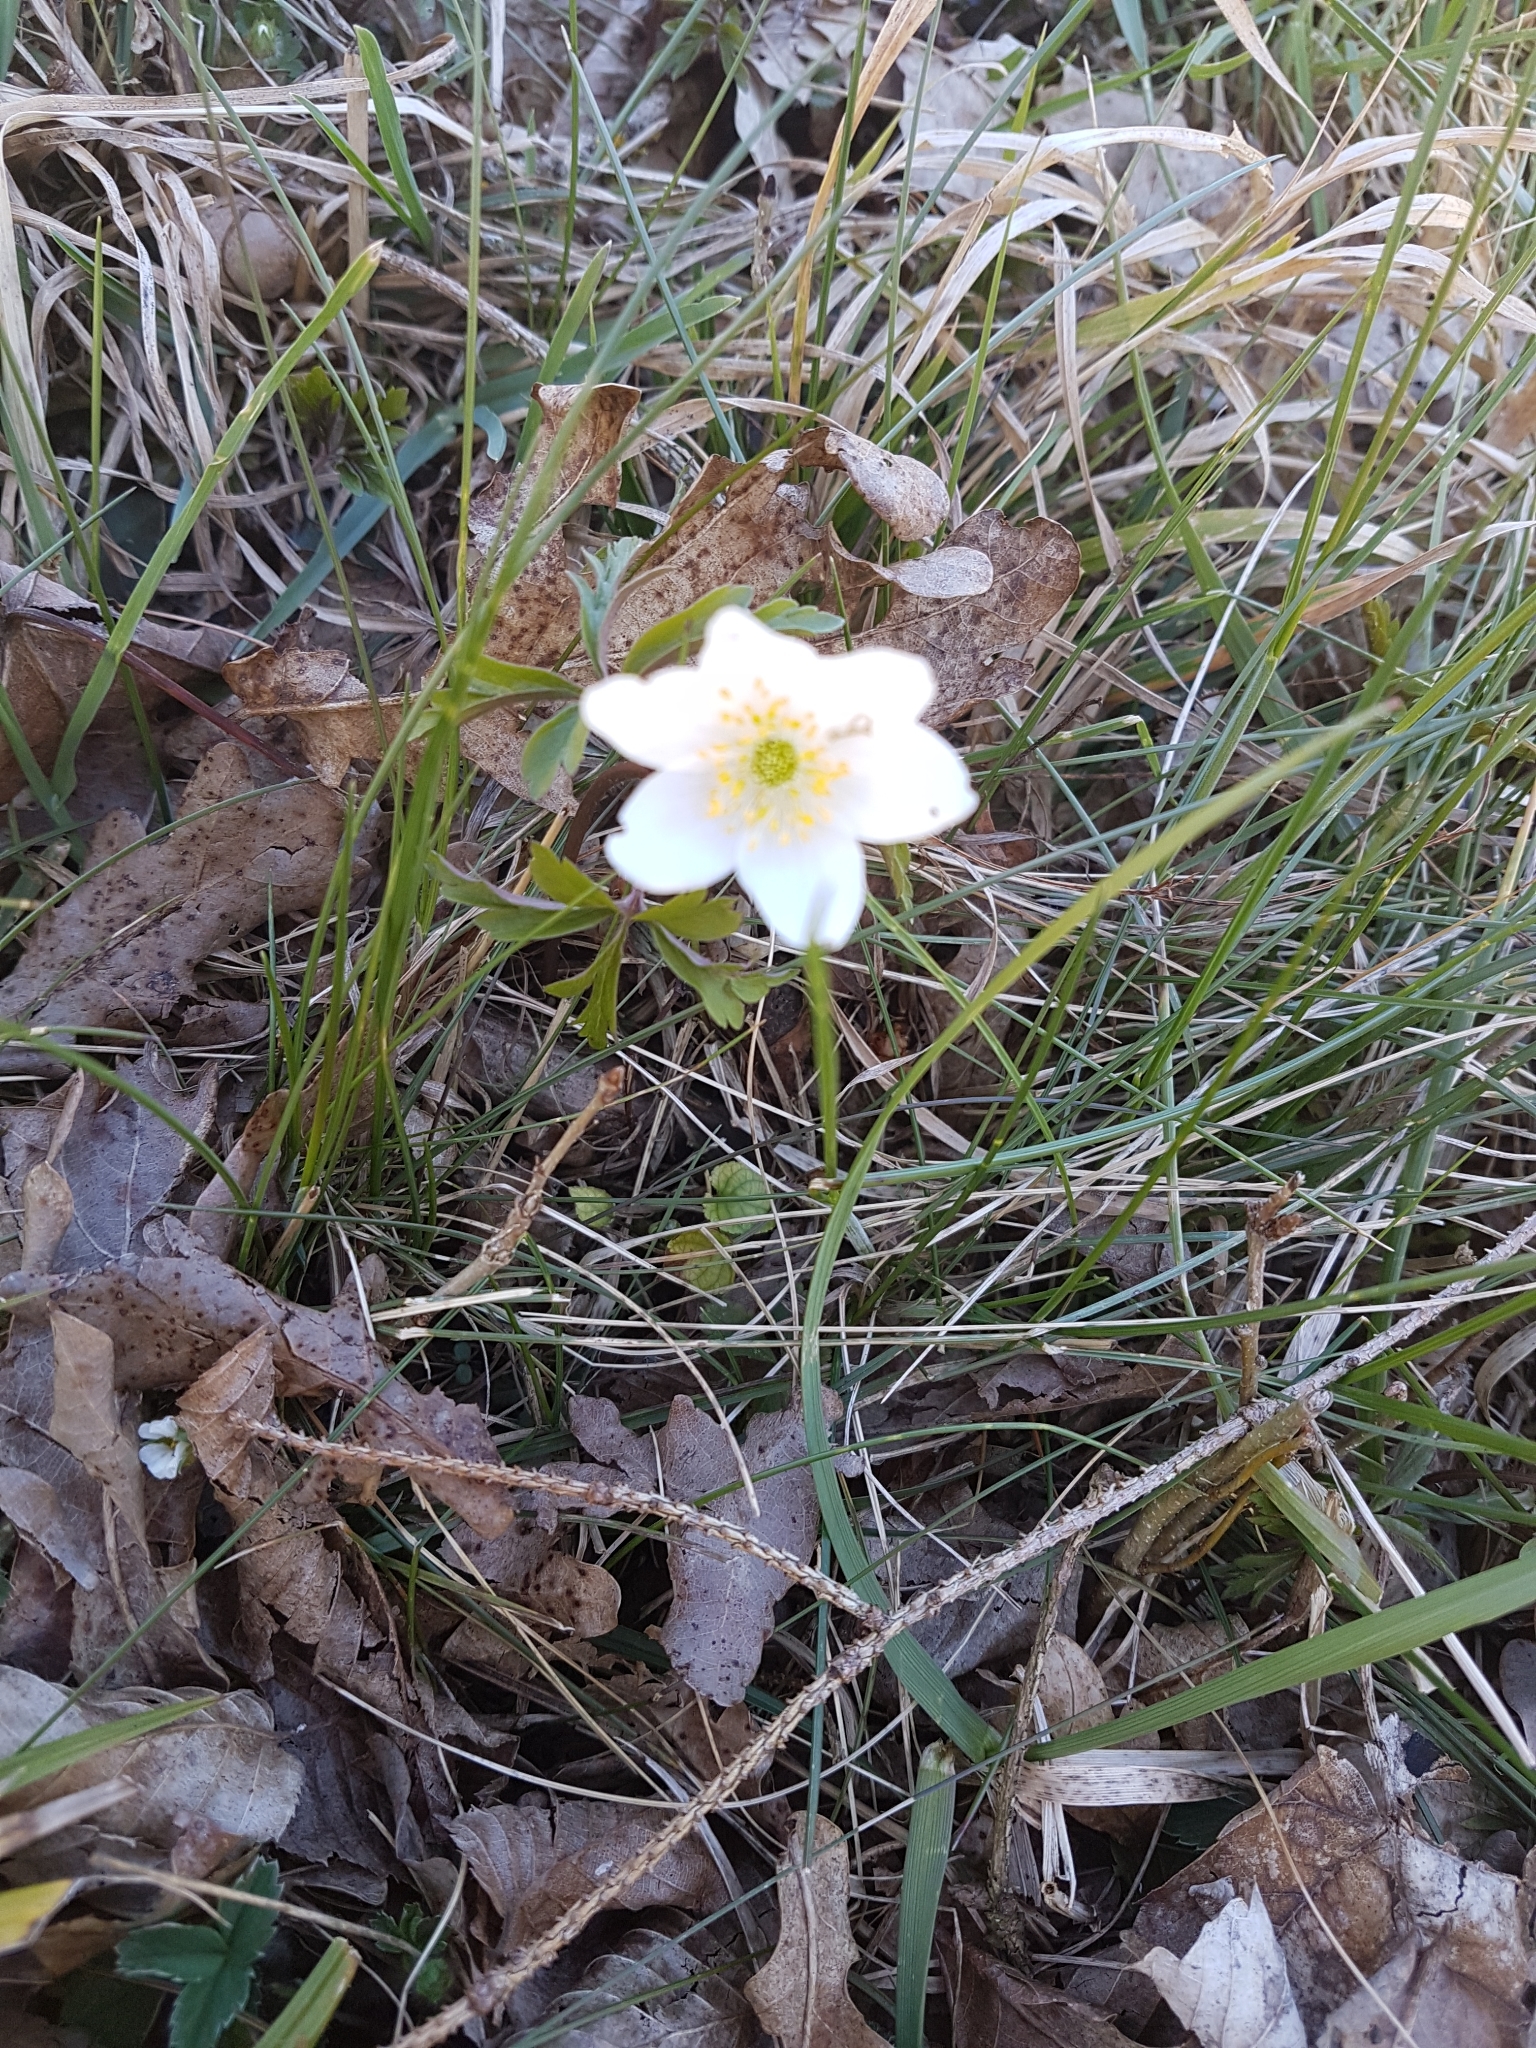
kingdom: Plantae
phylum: Tracheophyta
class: Magnoliopsida
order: Ranunculales
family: Ranunculaceae
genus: Anemone
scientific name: Anemone nemorosa
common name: Wood anemone
